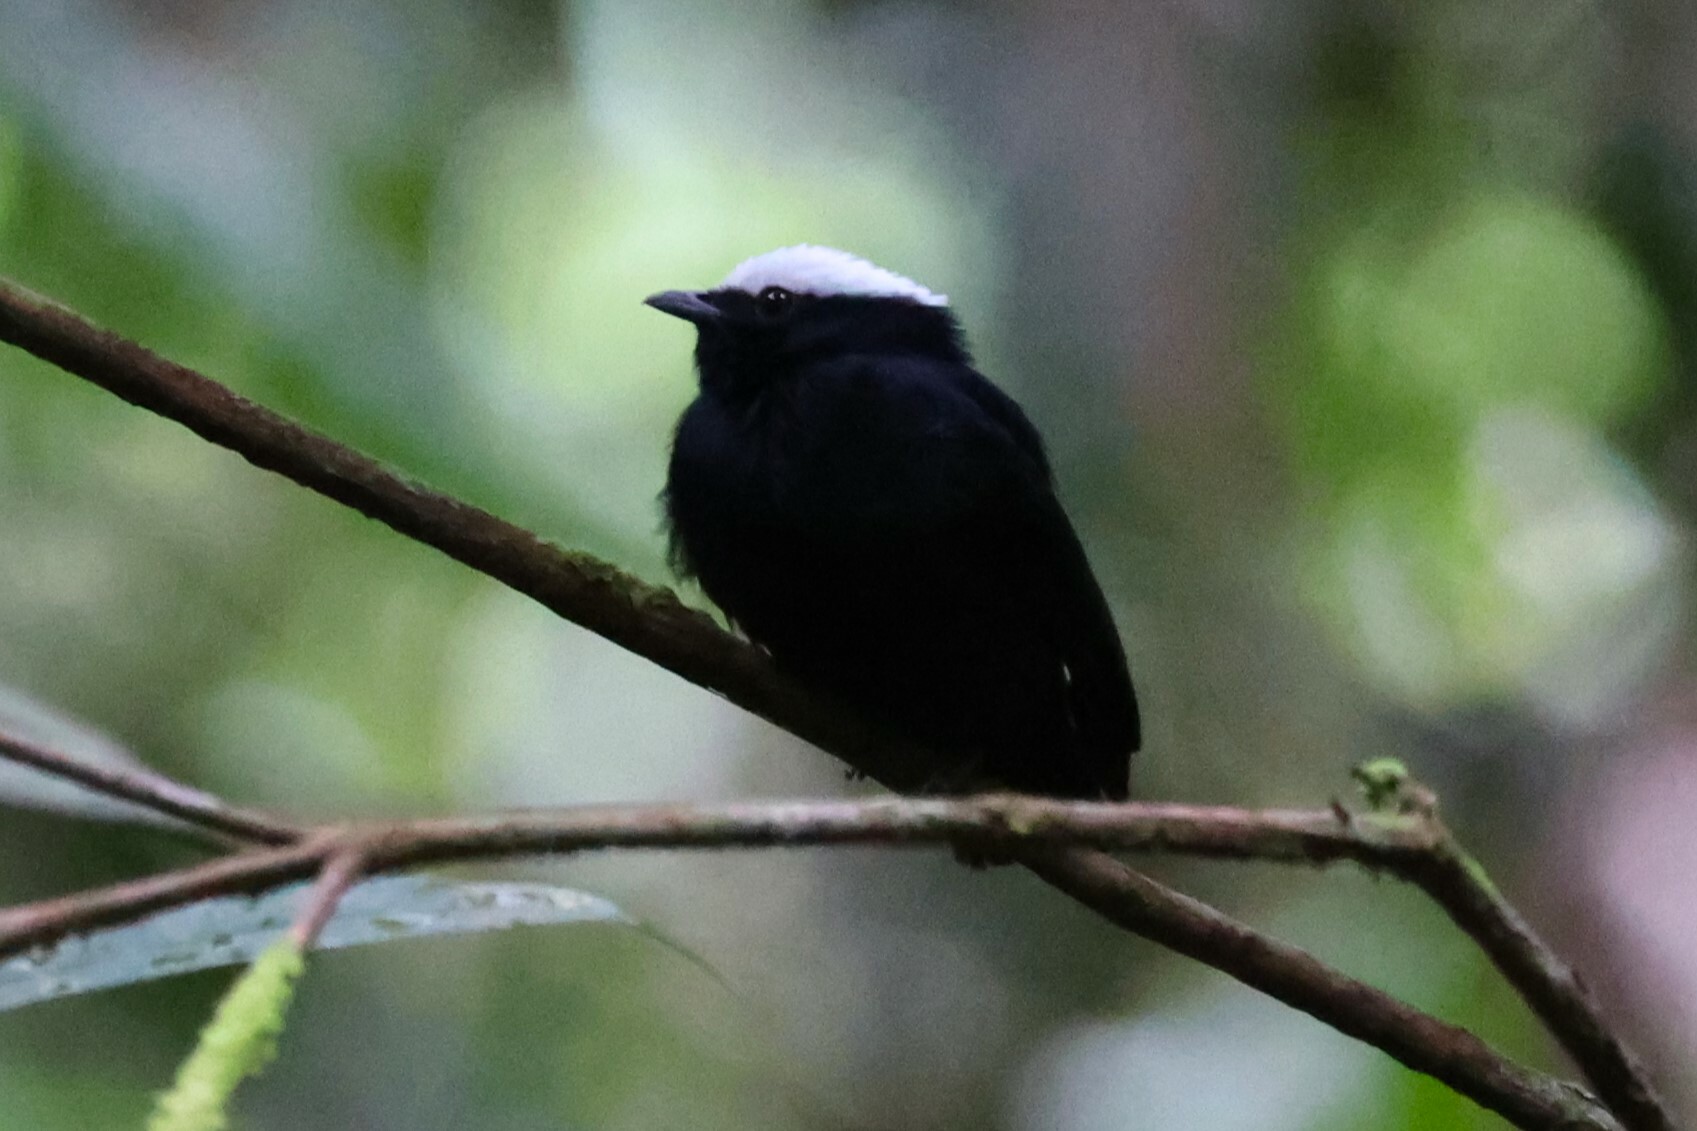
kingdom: Animalia
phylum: Chordata
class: Aves
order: Passeriformes
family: Pipridae
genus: Pipra
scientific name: Pipra pipra
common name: White-crowned manakin
